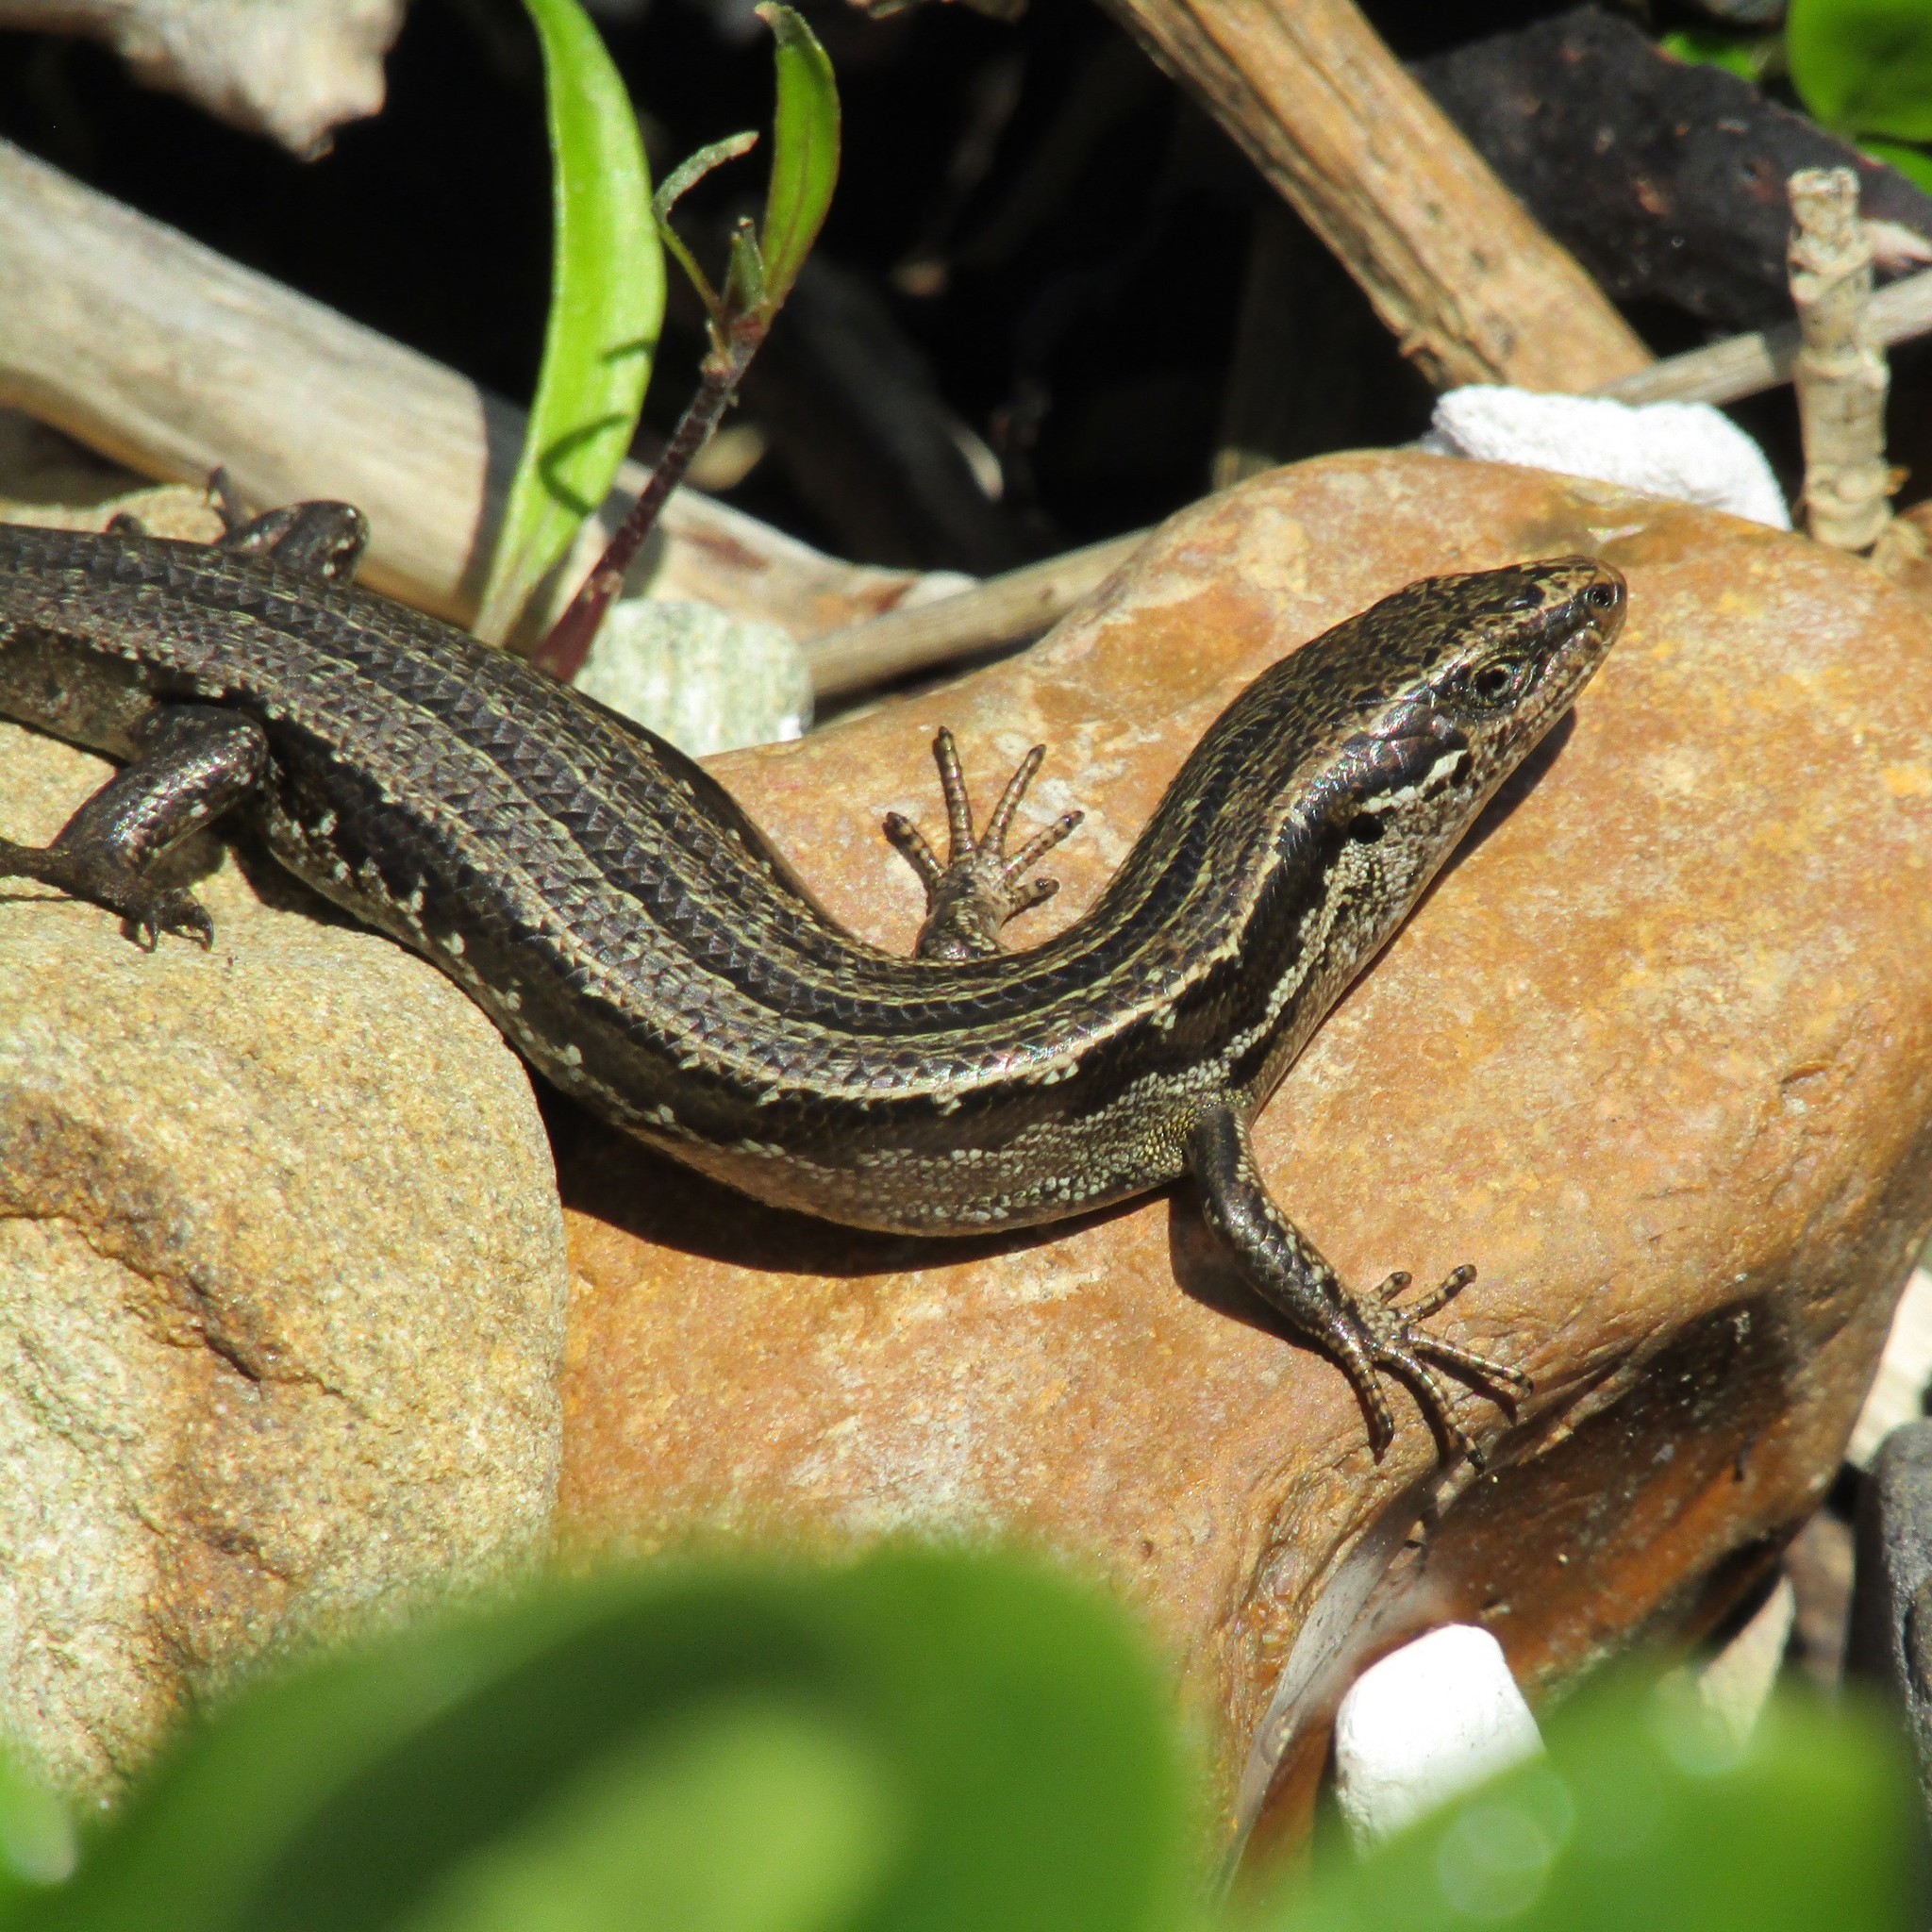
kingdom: Animalia
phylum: Chordata
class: Squamata
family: Scincidae
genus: Oligosoma
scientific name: Oligosoma polychroma
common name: Common new zealand skink
